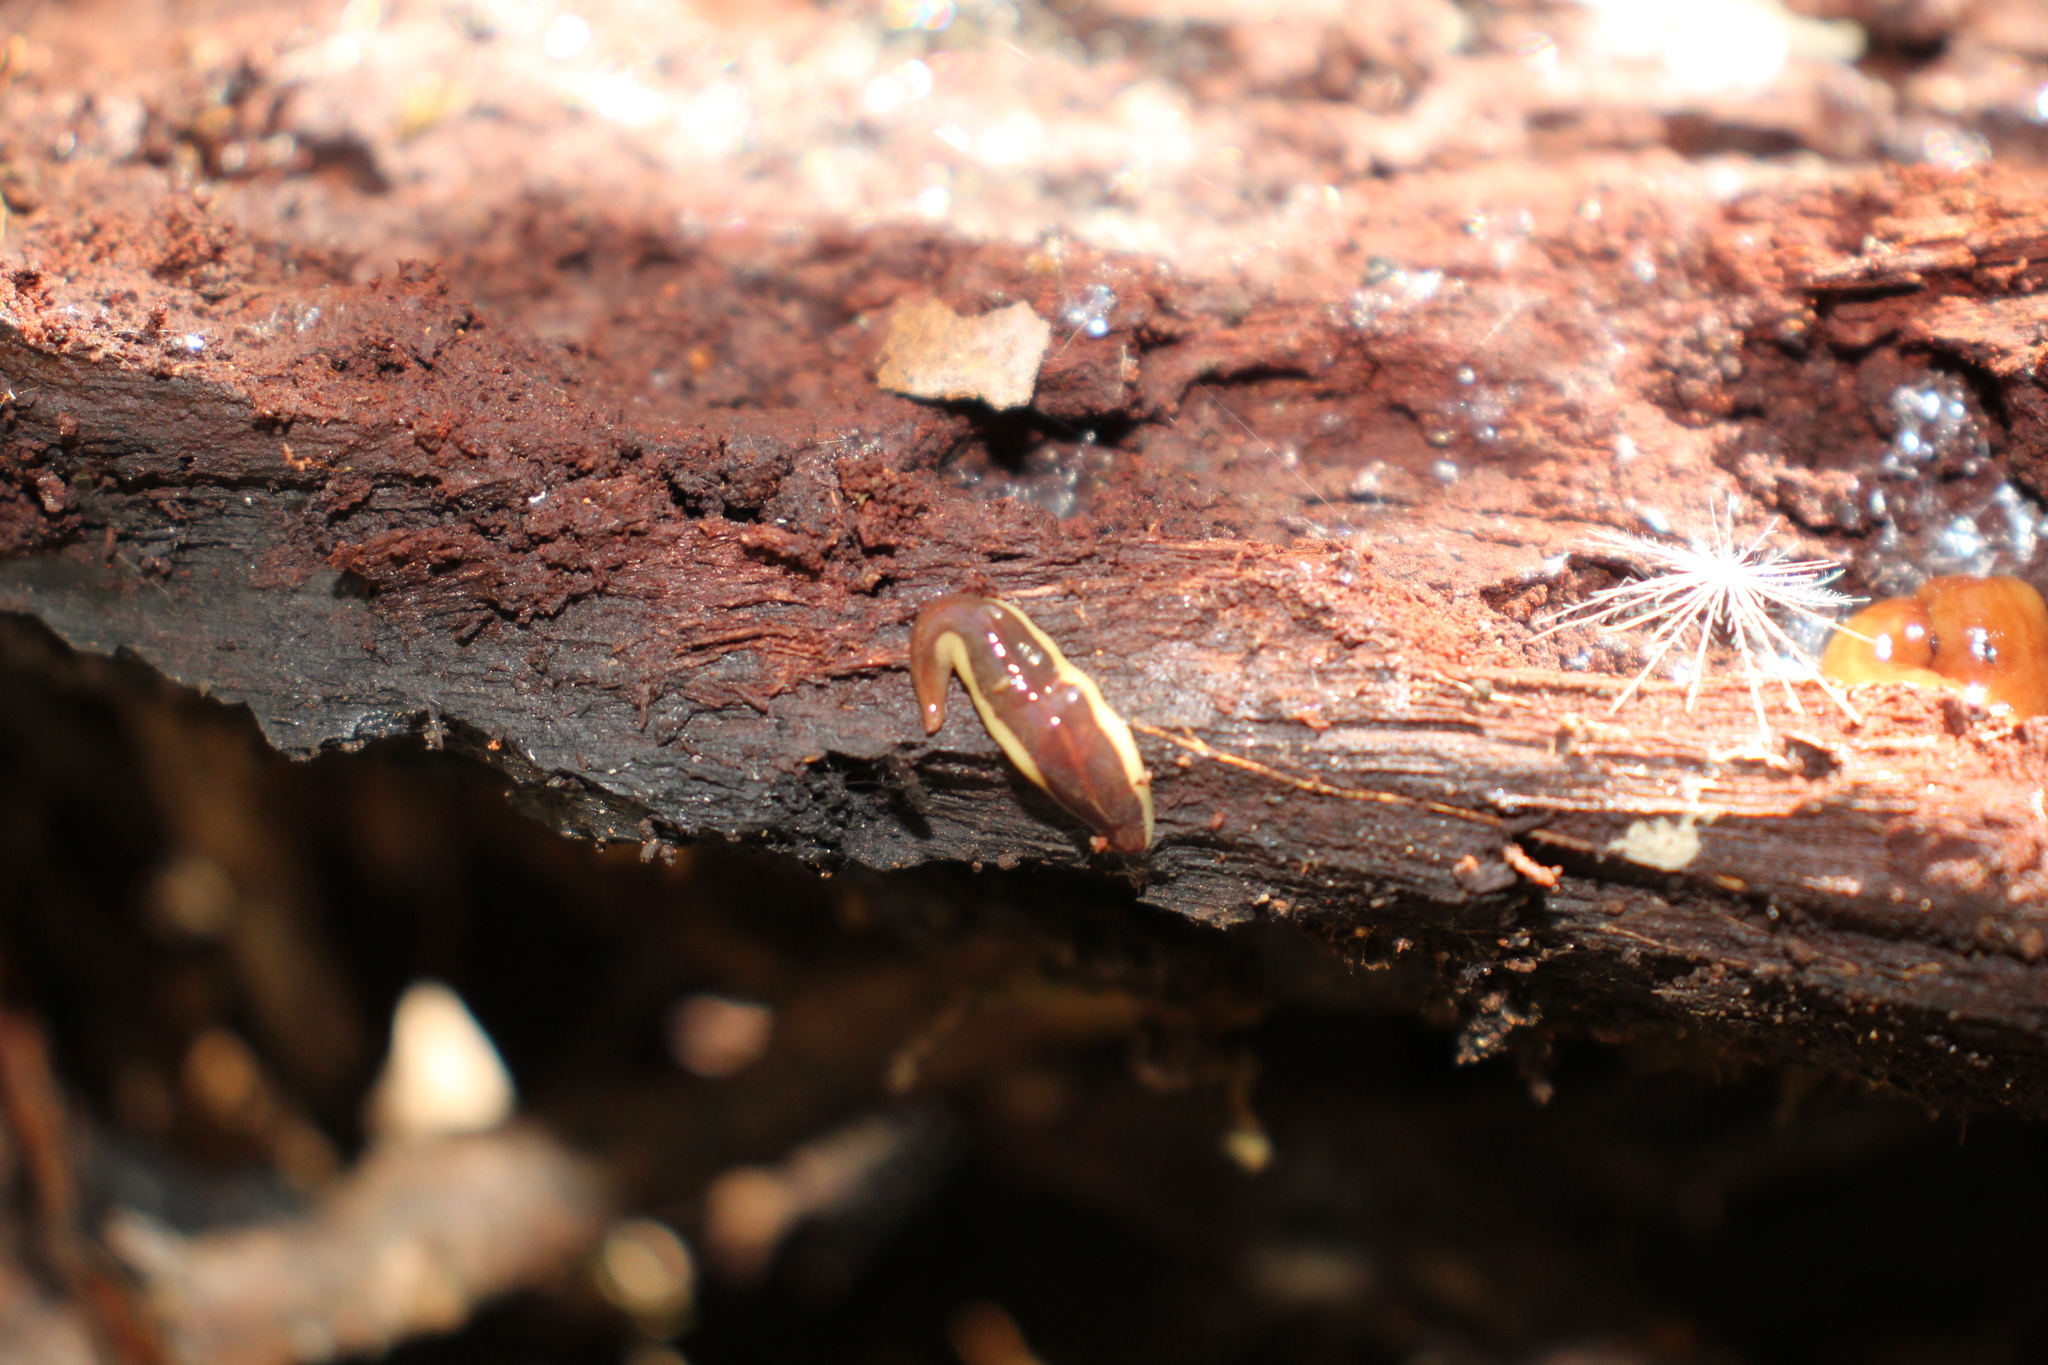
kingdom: Animalia
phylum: Platyhelminthes
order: Tricladida
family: Geoplanidae
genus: Australopacifica
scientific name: Australopacifica scaphoidea
